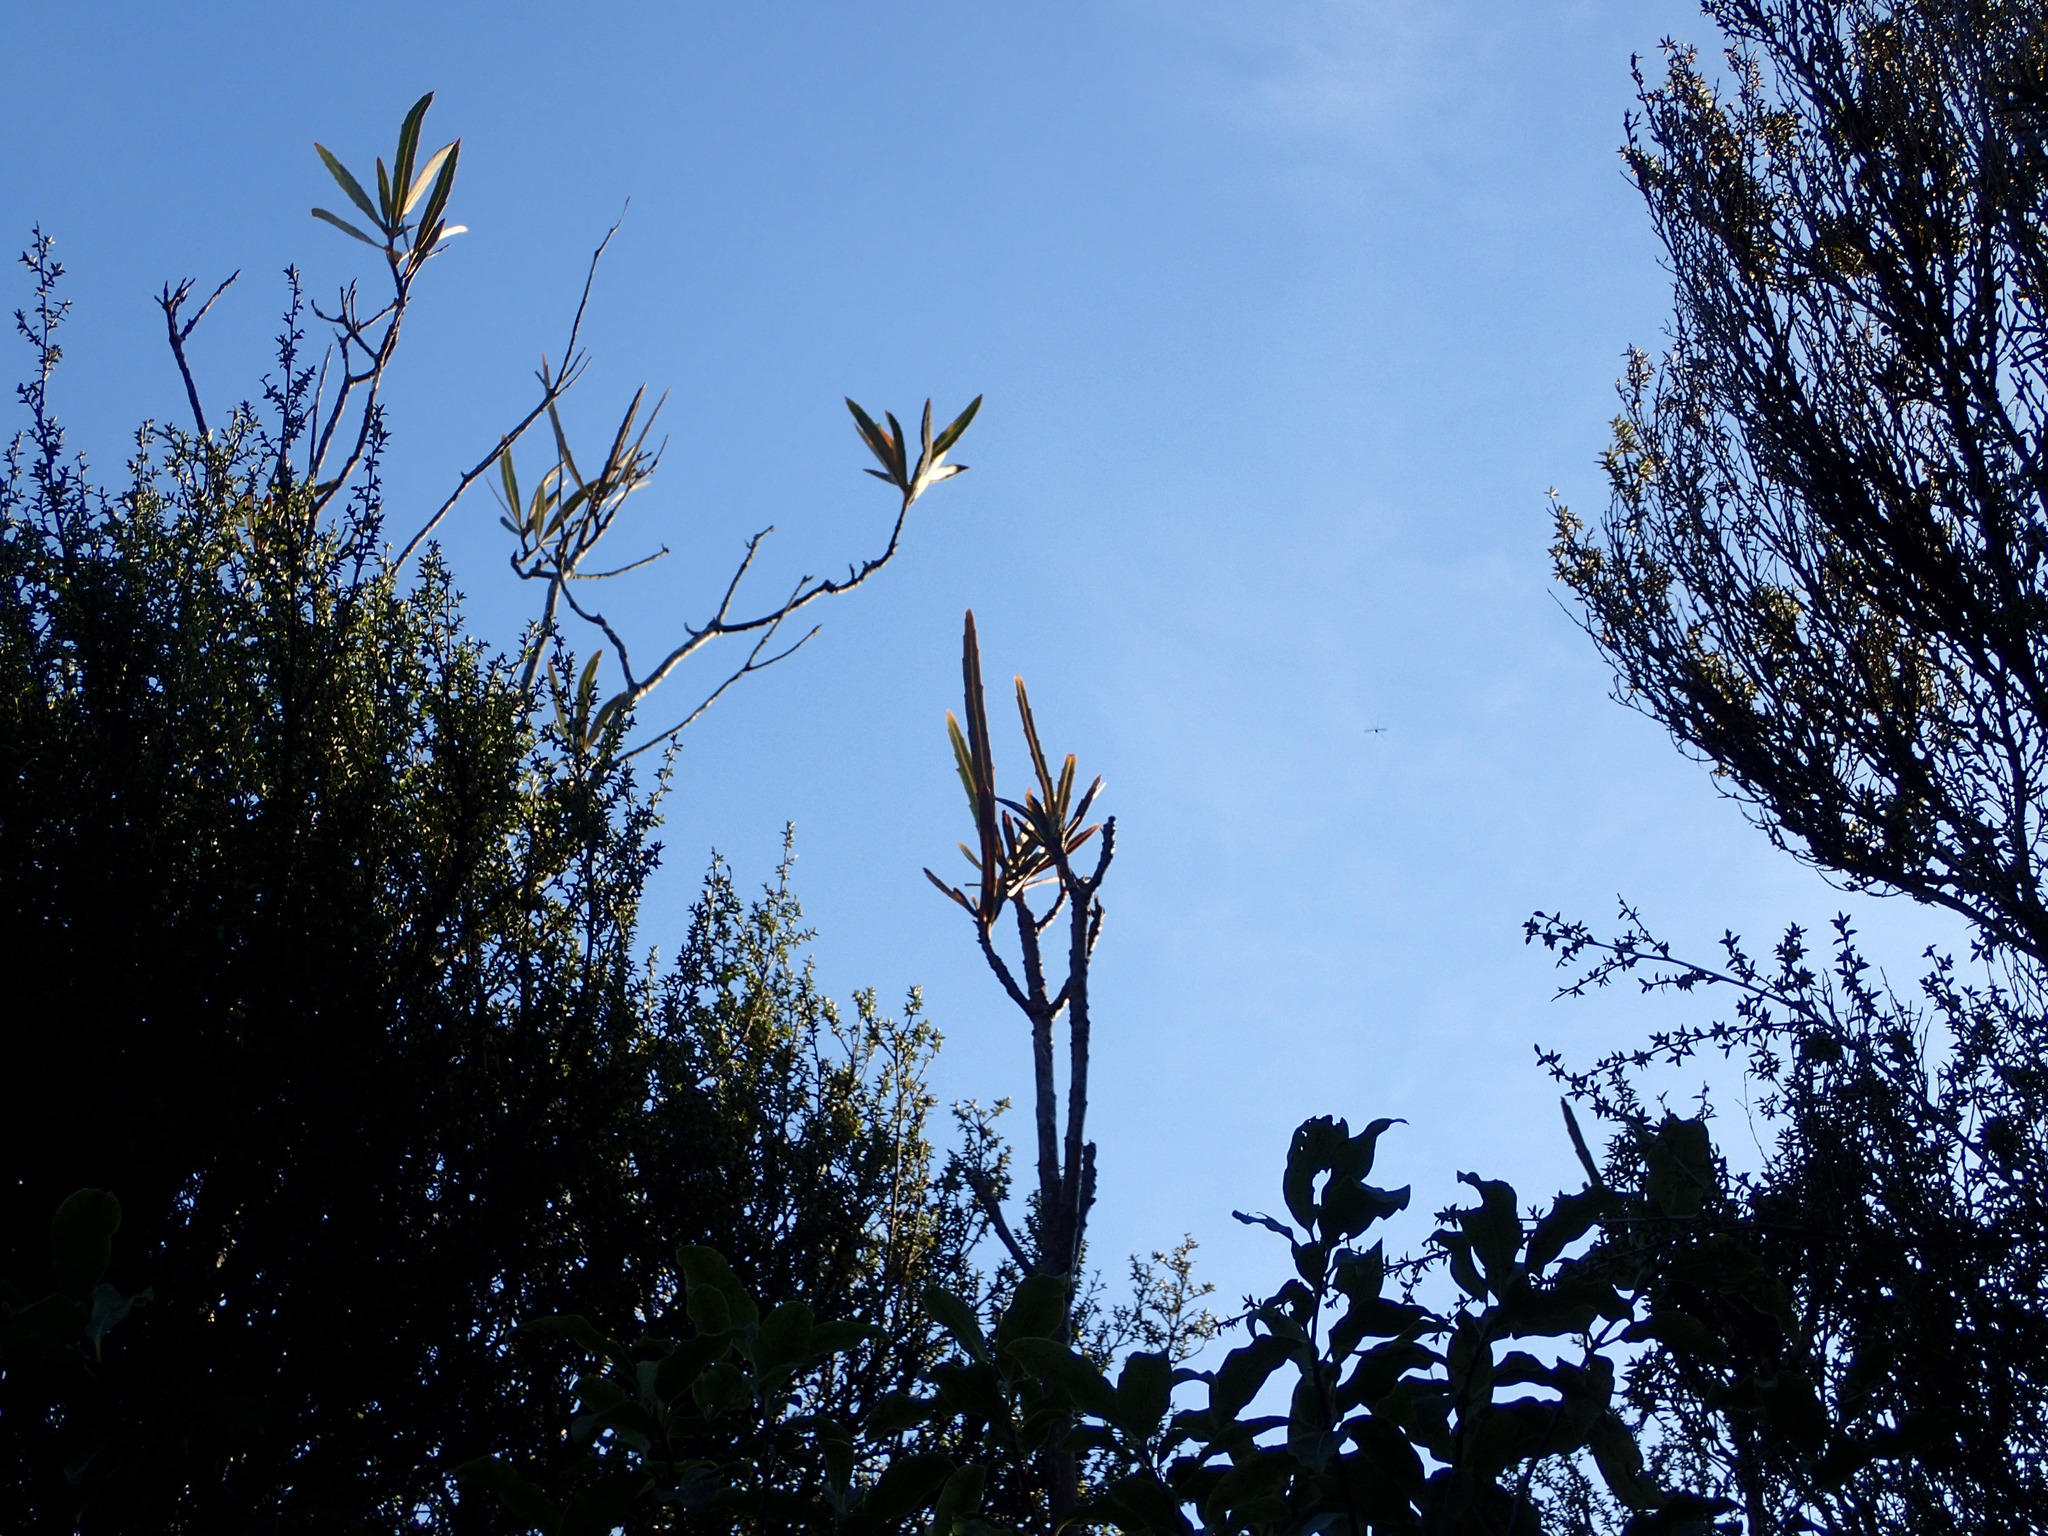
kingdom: Plantae
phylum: Tracheophyta
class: Magnoliopsida
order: Apiales
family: Araliaceae
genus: Pseudopanax
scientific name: Pseudopanax crassifolius
